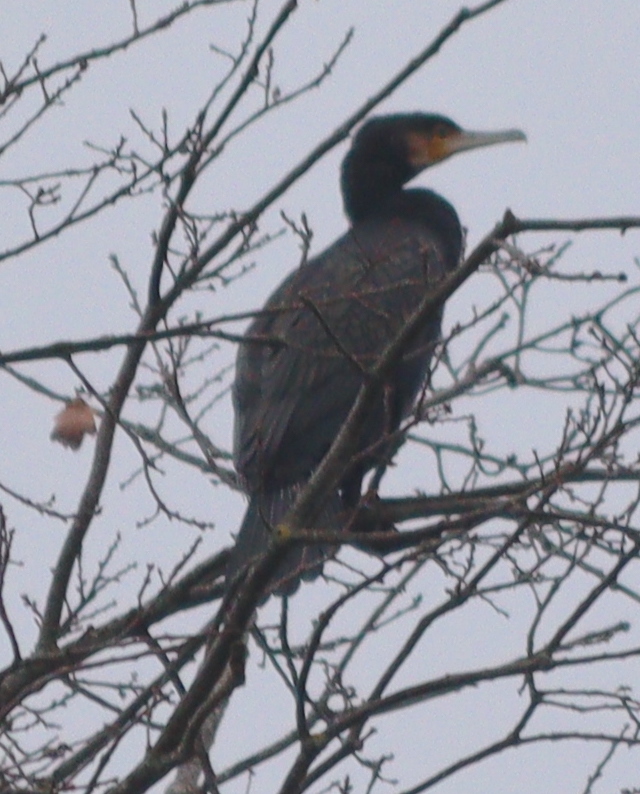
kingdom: Animalia
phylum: Chordata
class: Aves
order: Suliformes
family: Phalacrocoracidae
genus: Phalacrocorax
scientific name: Phalacrocorax carbo
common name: Great cormorant
